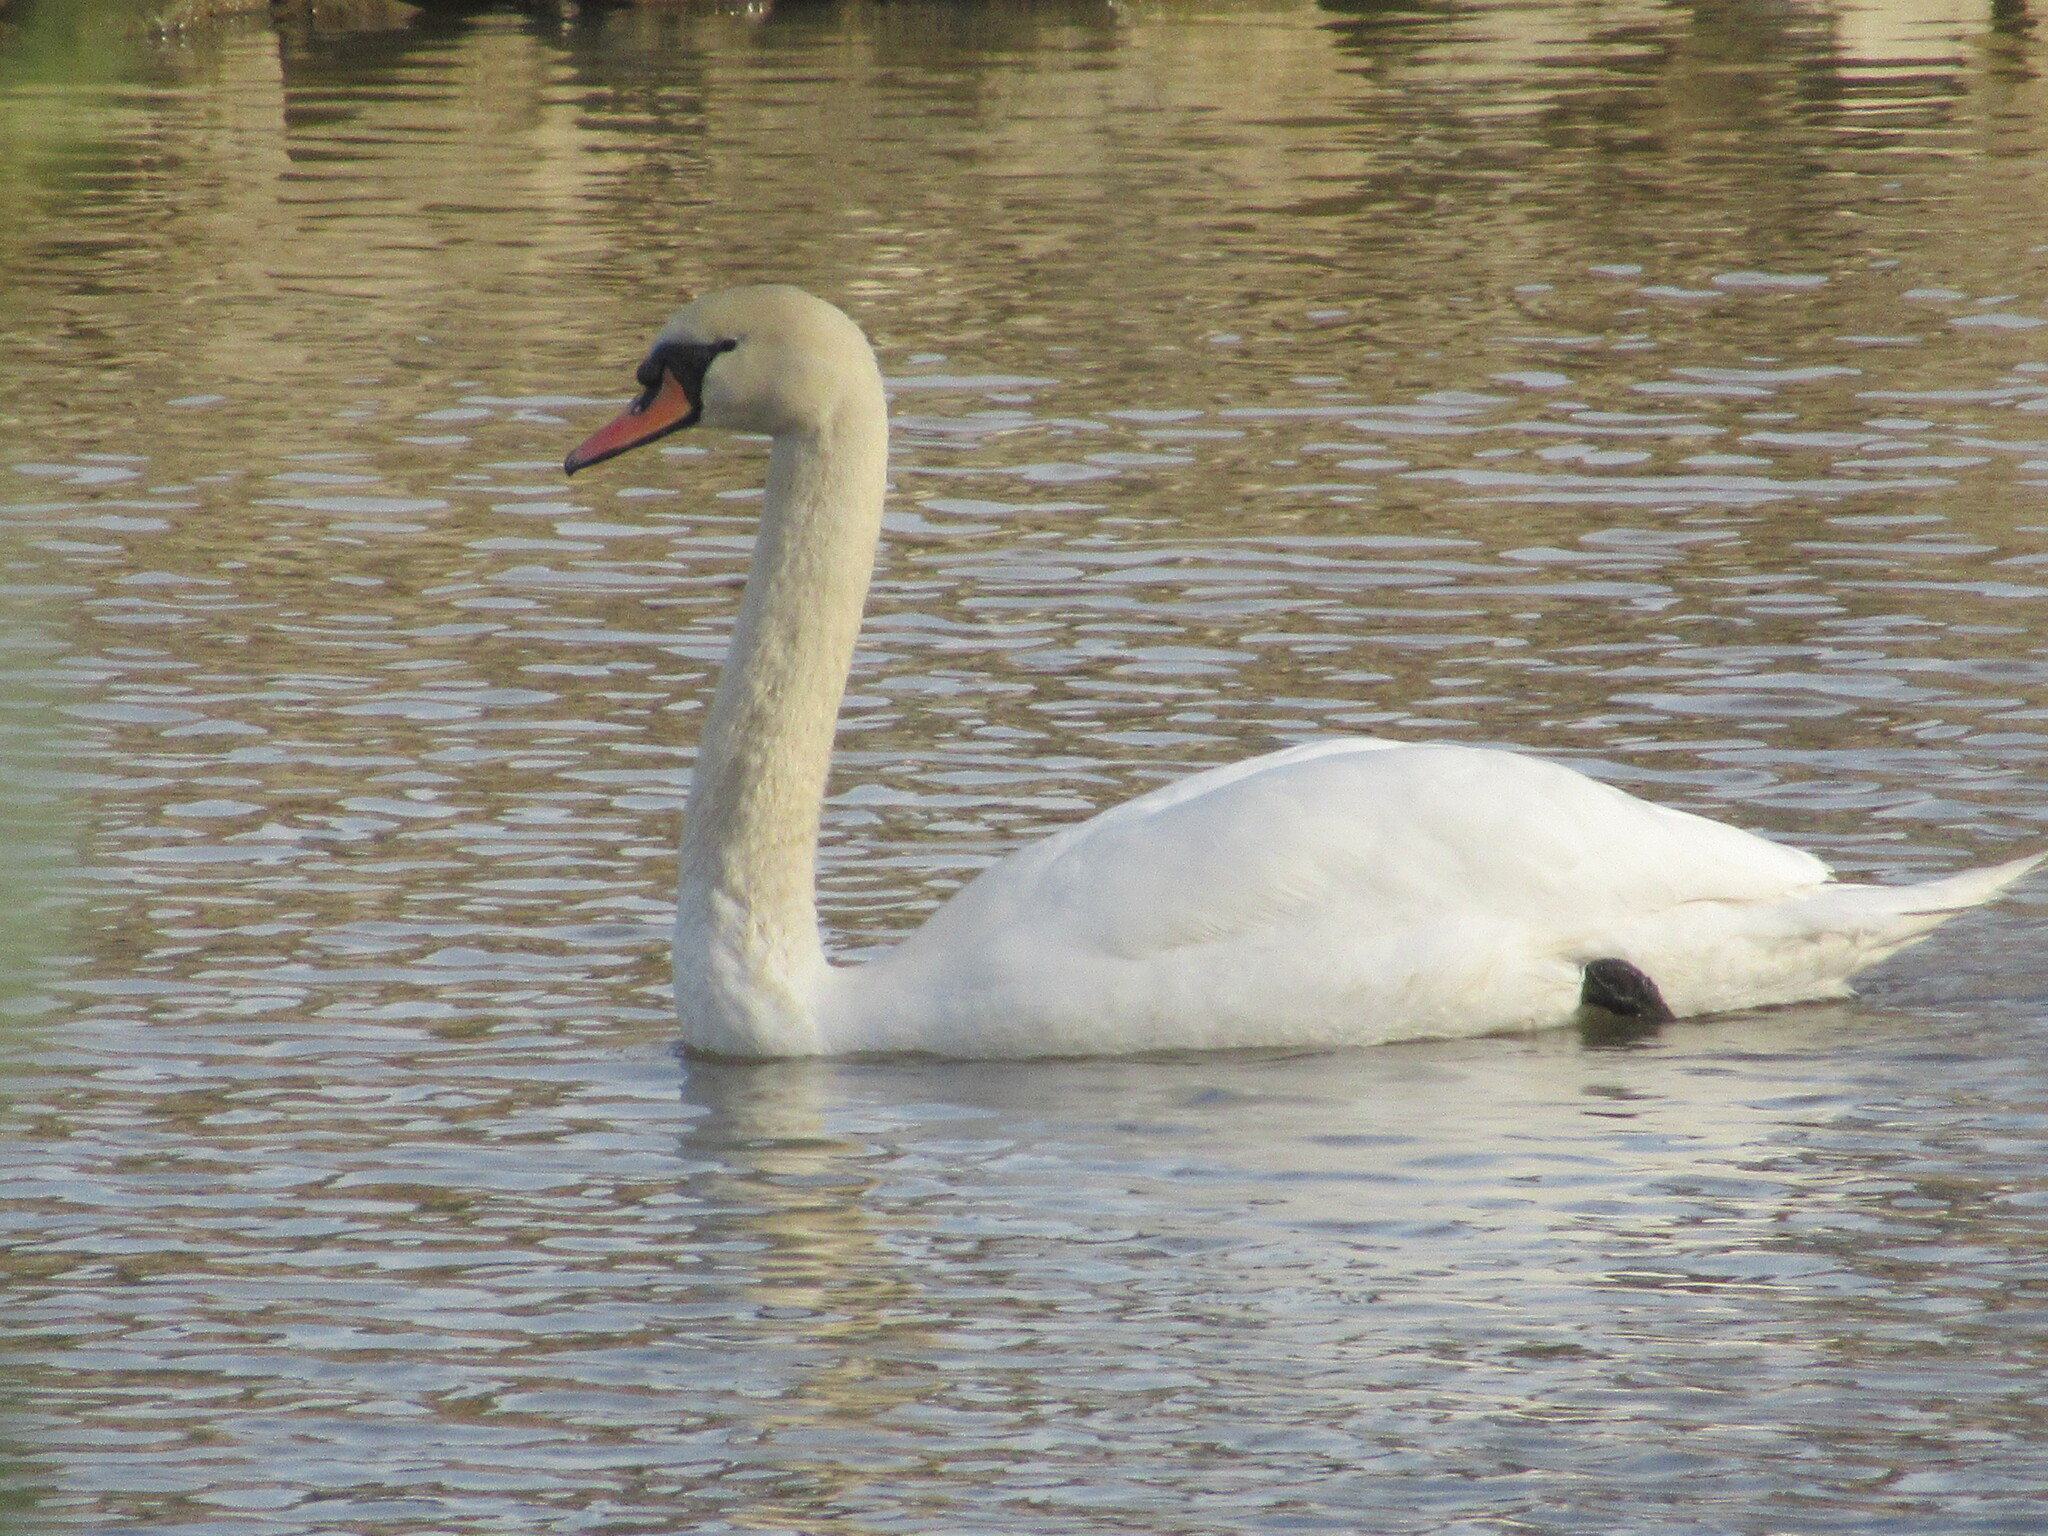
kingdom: Animalia
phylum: Chordata
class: Aves
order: Anseriformes
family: Anatidae
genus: Cygnus
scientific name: Cygnus olor
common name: Mute swan
